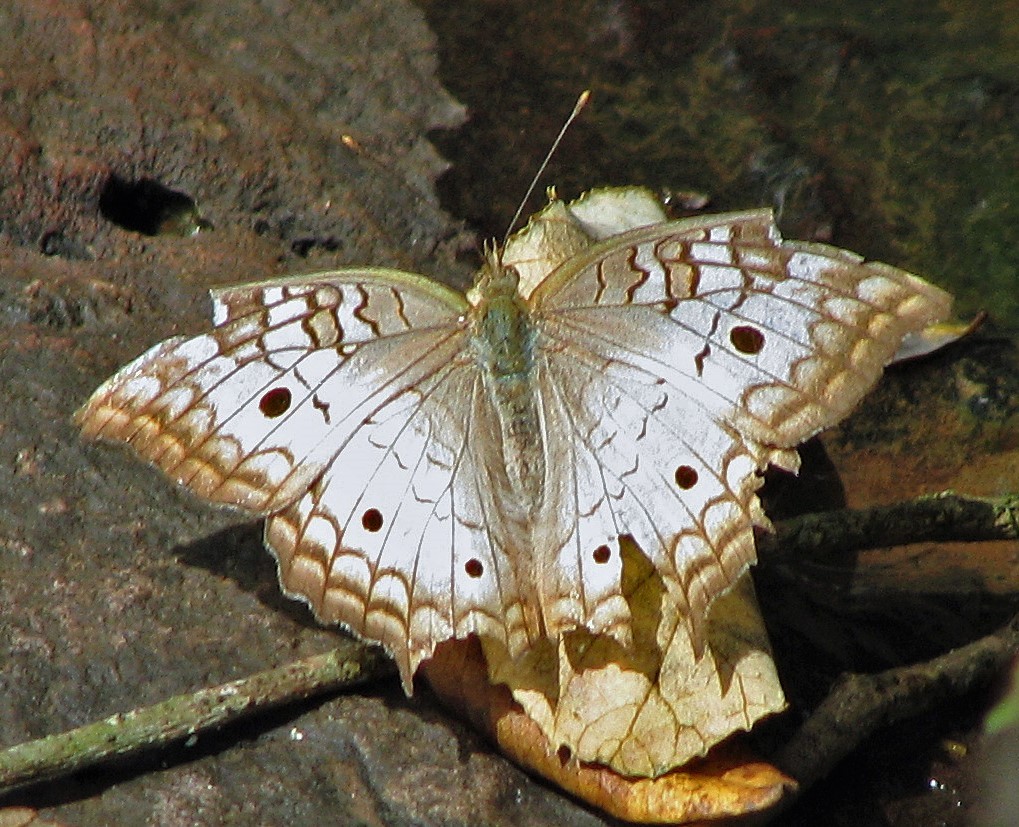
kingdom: Animalia
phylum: Arthropoda
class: Insecta
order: Lepidoptera
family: Nymphalidae
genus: Anartia
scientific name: Anartia jatrophae
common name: White peacock
